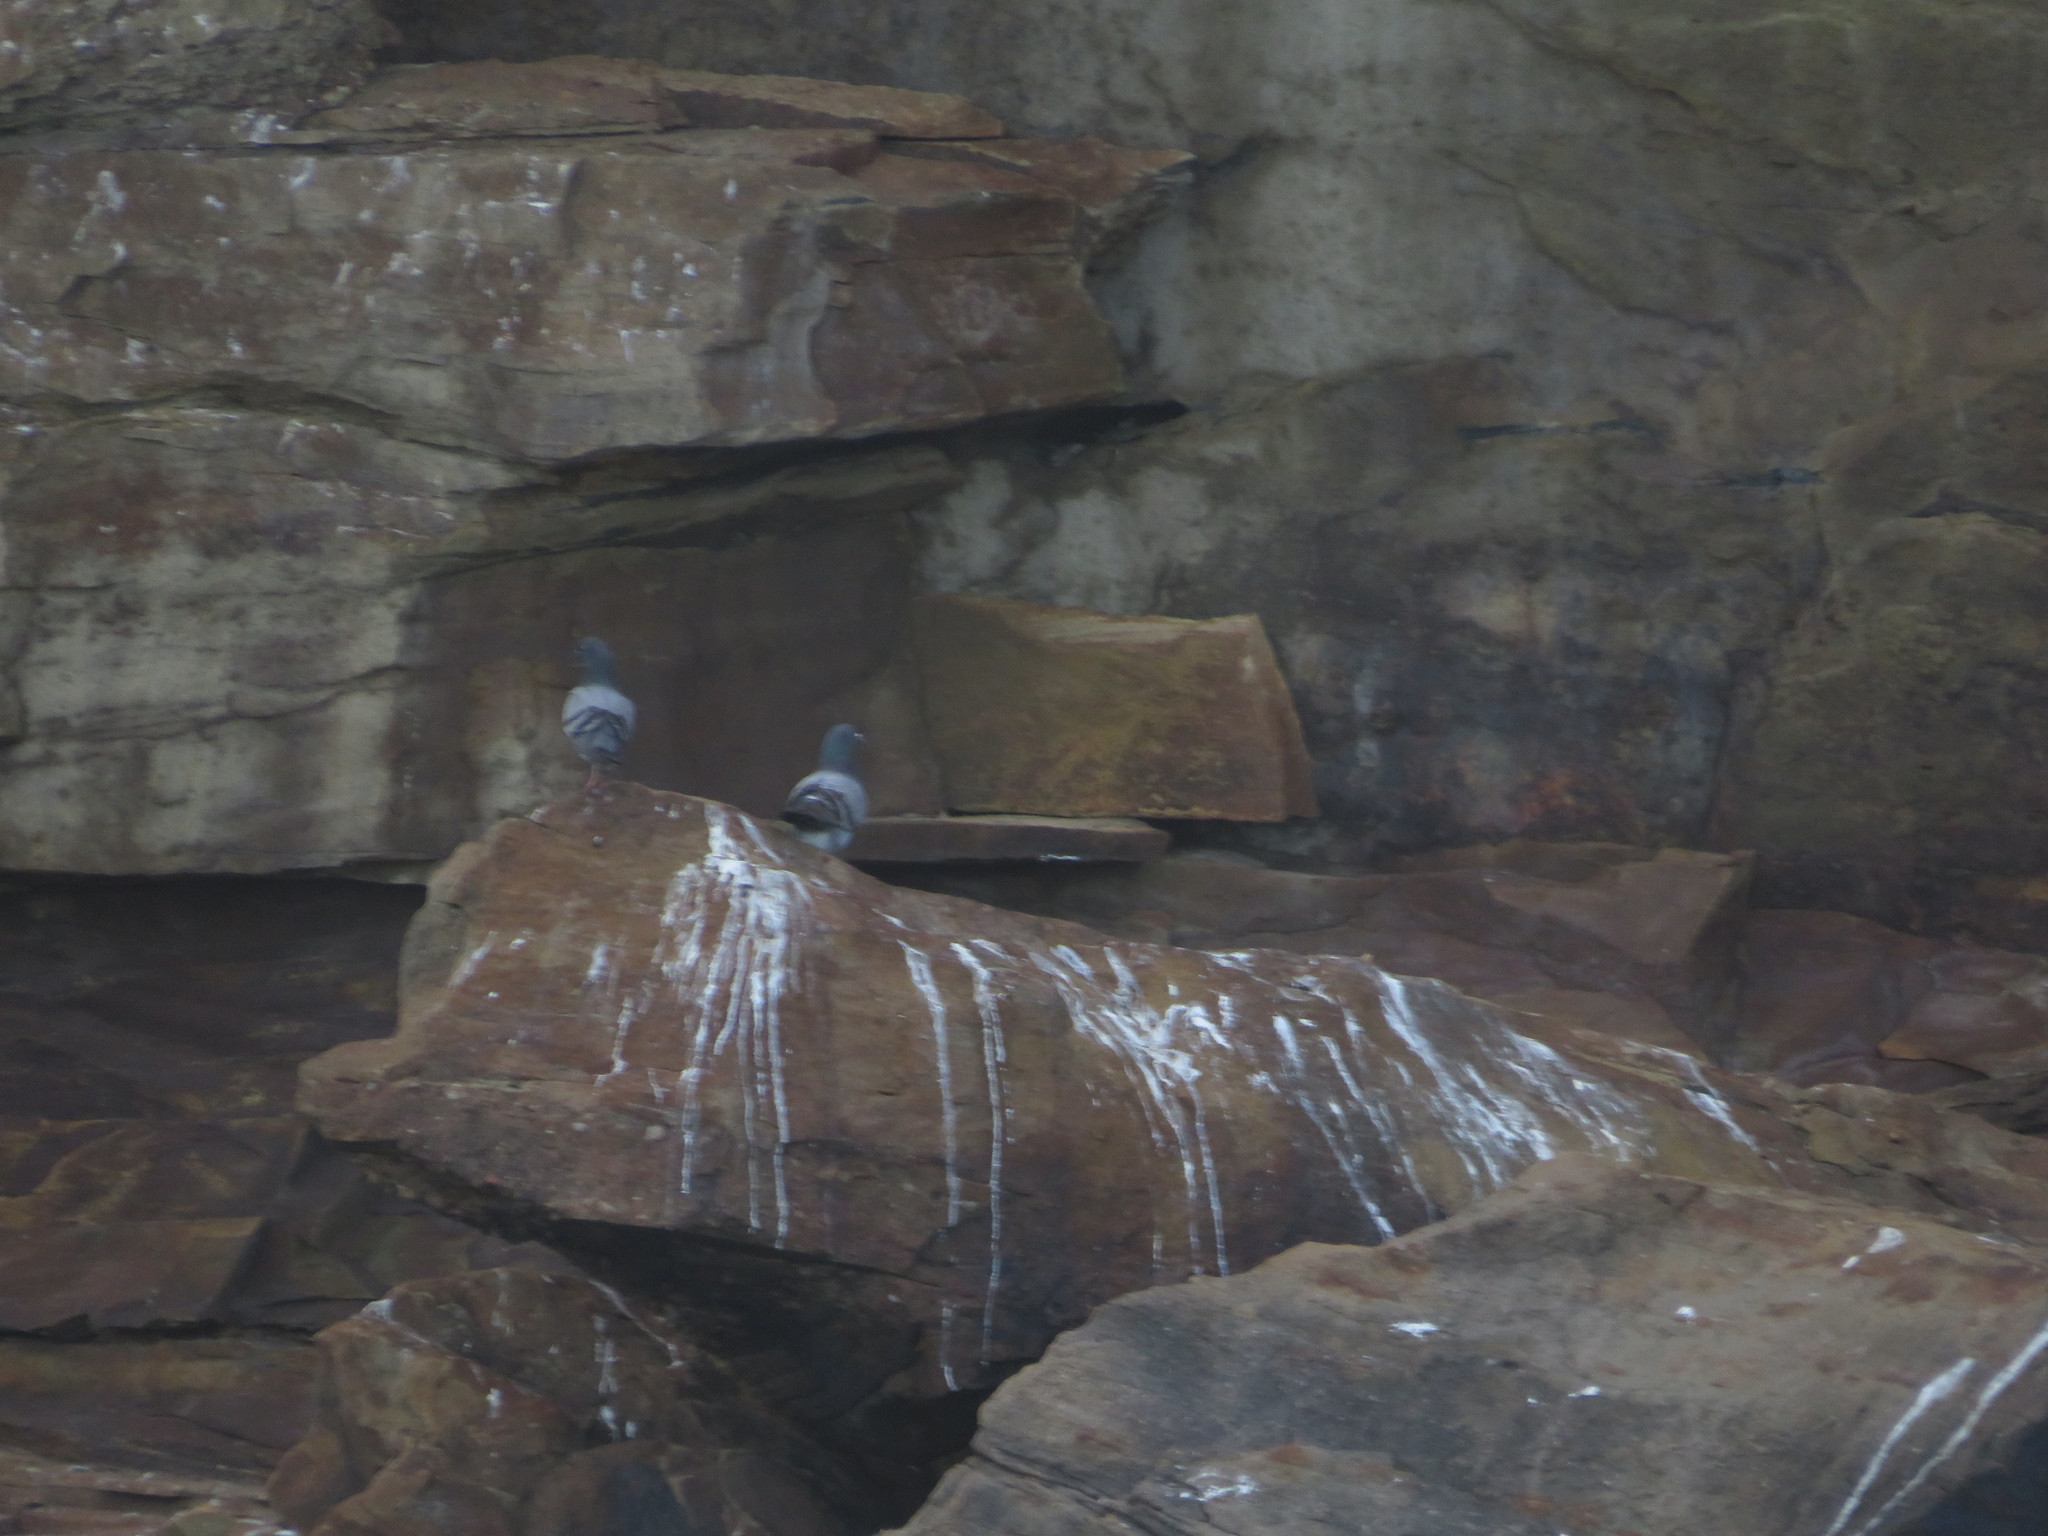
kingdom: Animalia
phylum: Chordata
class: Aves
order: Columbiformes
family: Columbidae
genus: Columba
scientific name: Columba livia
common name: Rock pigeon
